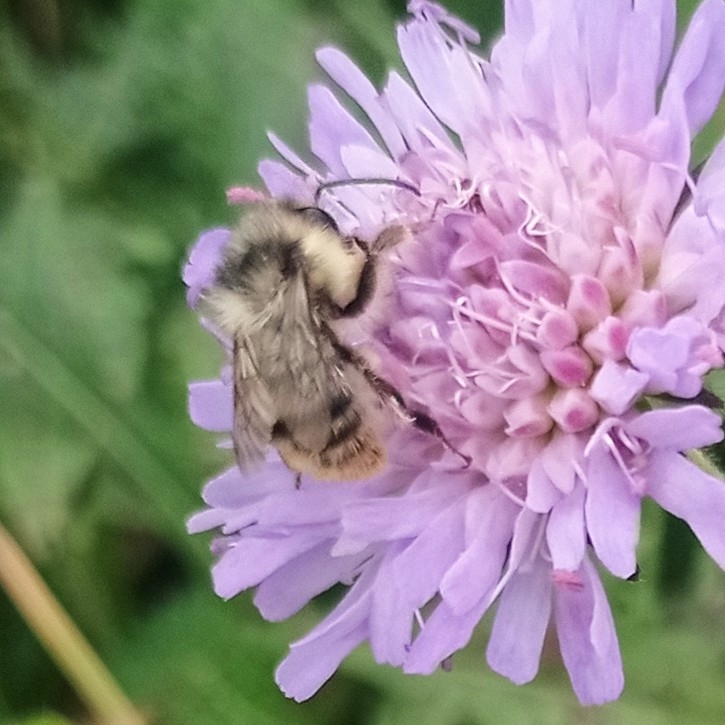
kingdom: Animalia
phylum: Arthropoda
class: Insecta
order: Hymenoptera
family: Apidae
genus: Bombus
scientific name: Bombus sylvarum
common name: Shrill carder bee
